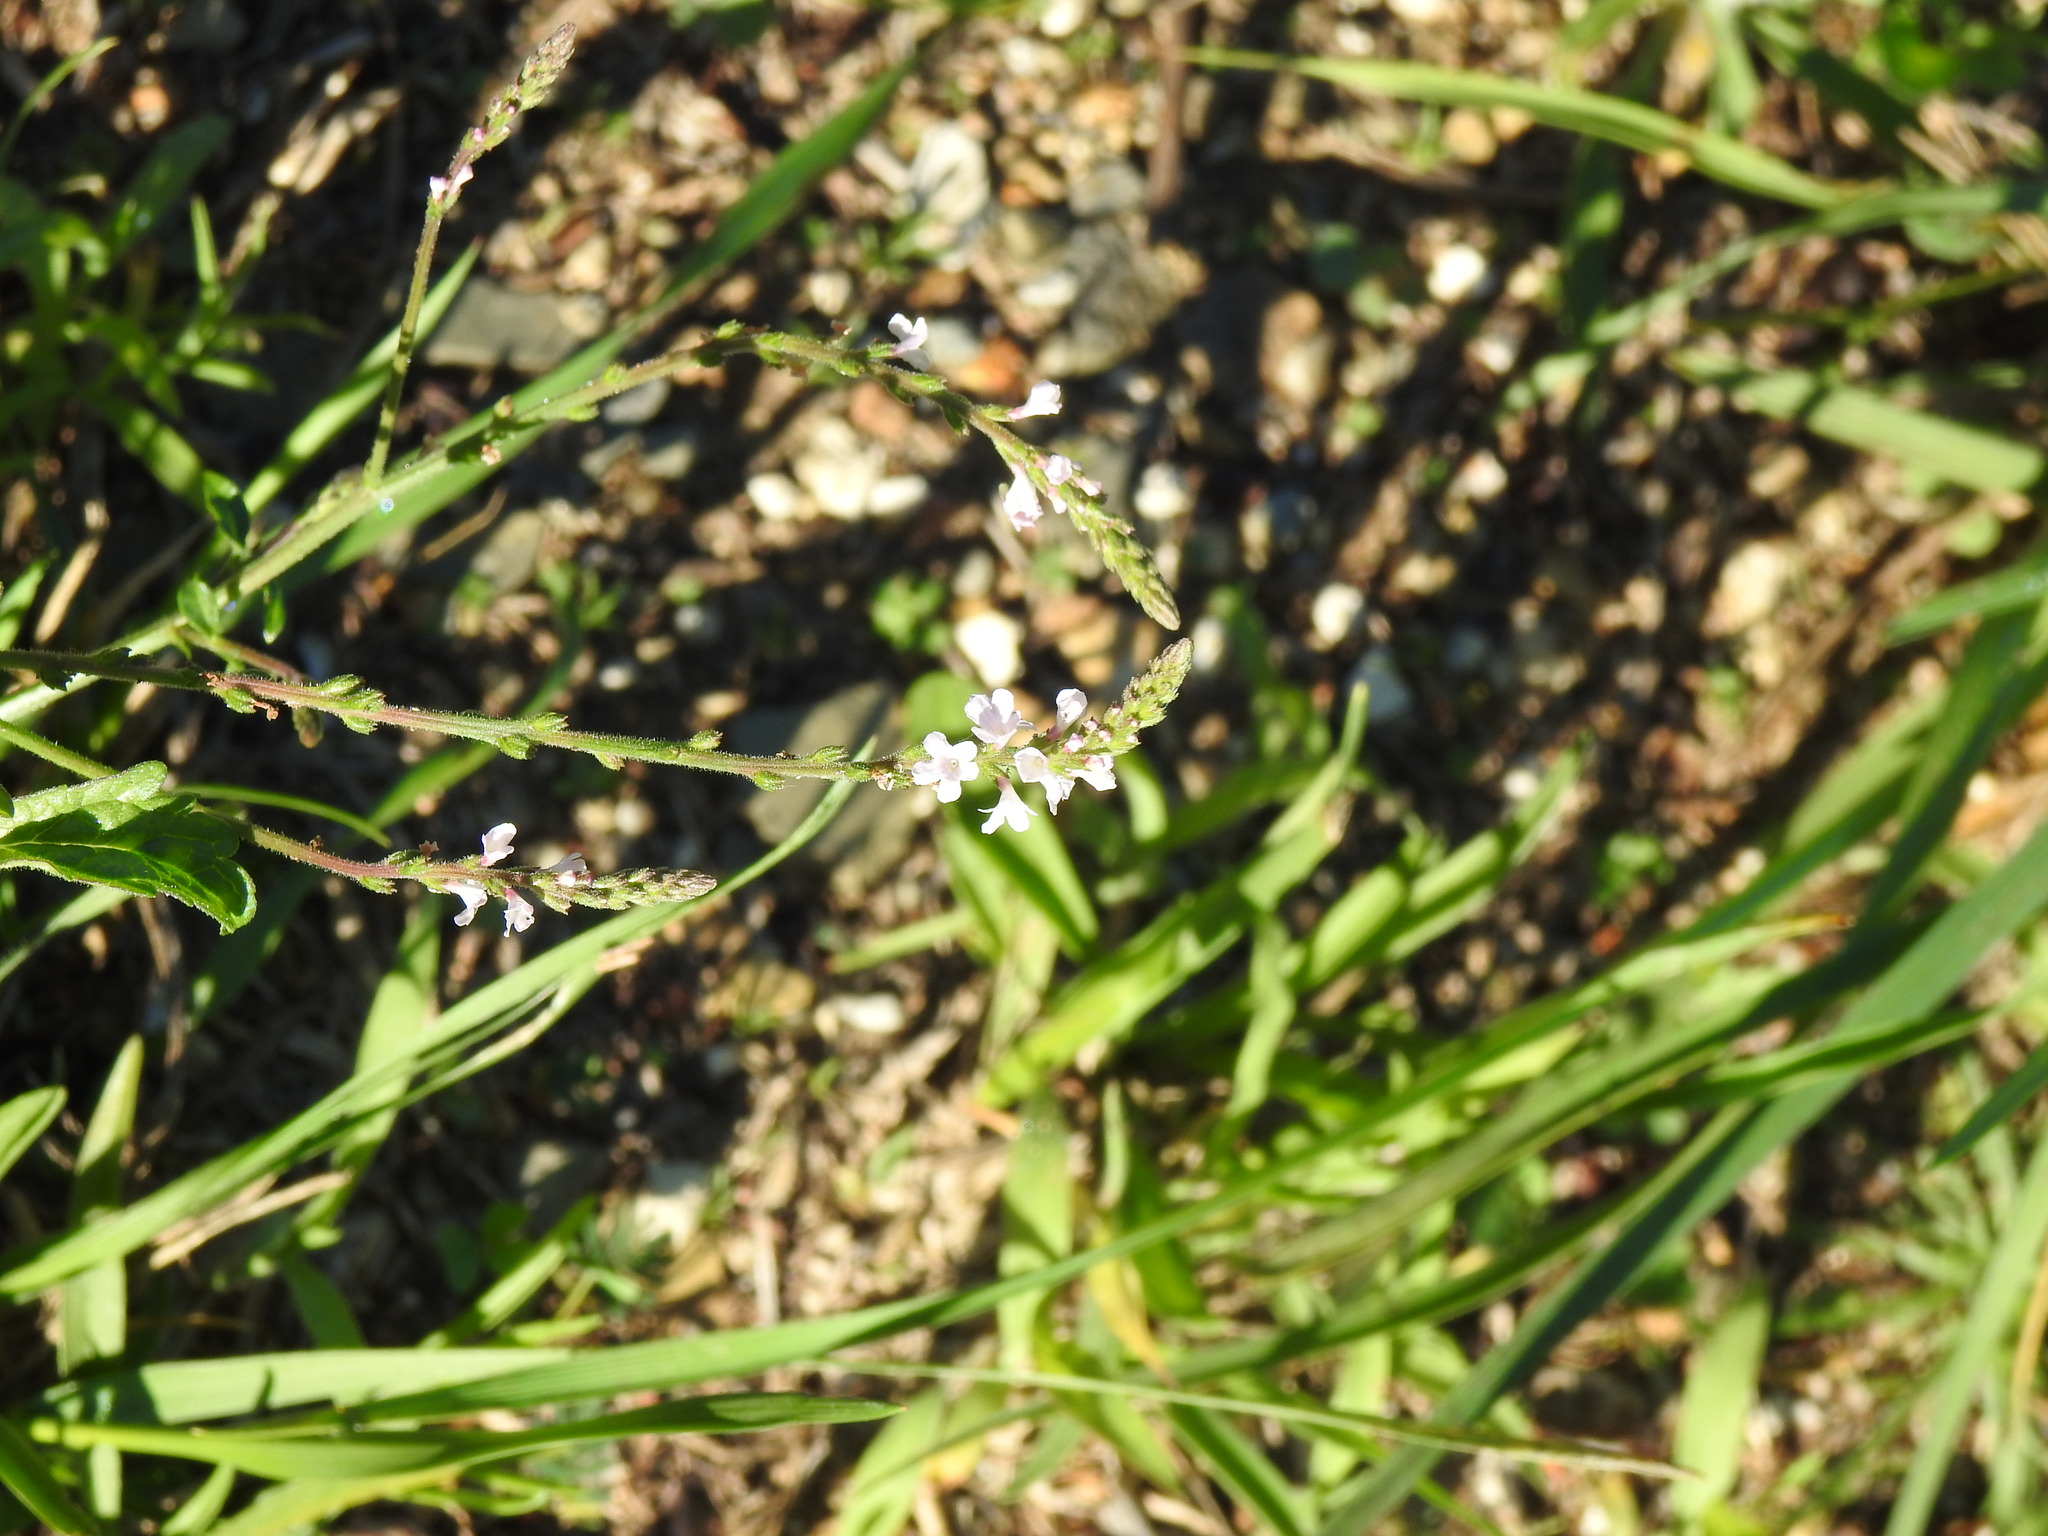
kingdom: Plantae
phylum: Tracheophyta
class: Magnoliopsida
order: Lamiales
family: Verbenaceae
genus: Verbena
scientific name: Verbena officinalis
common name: Vervain
